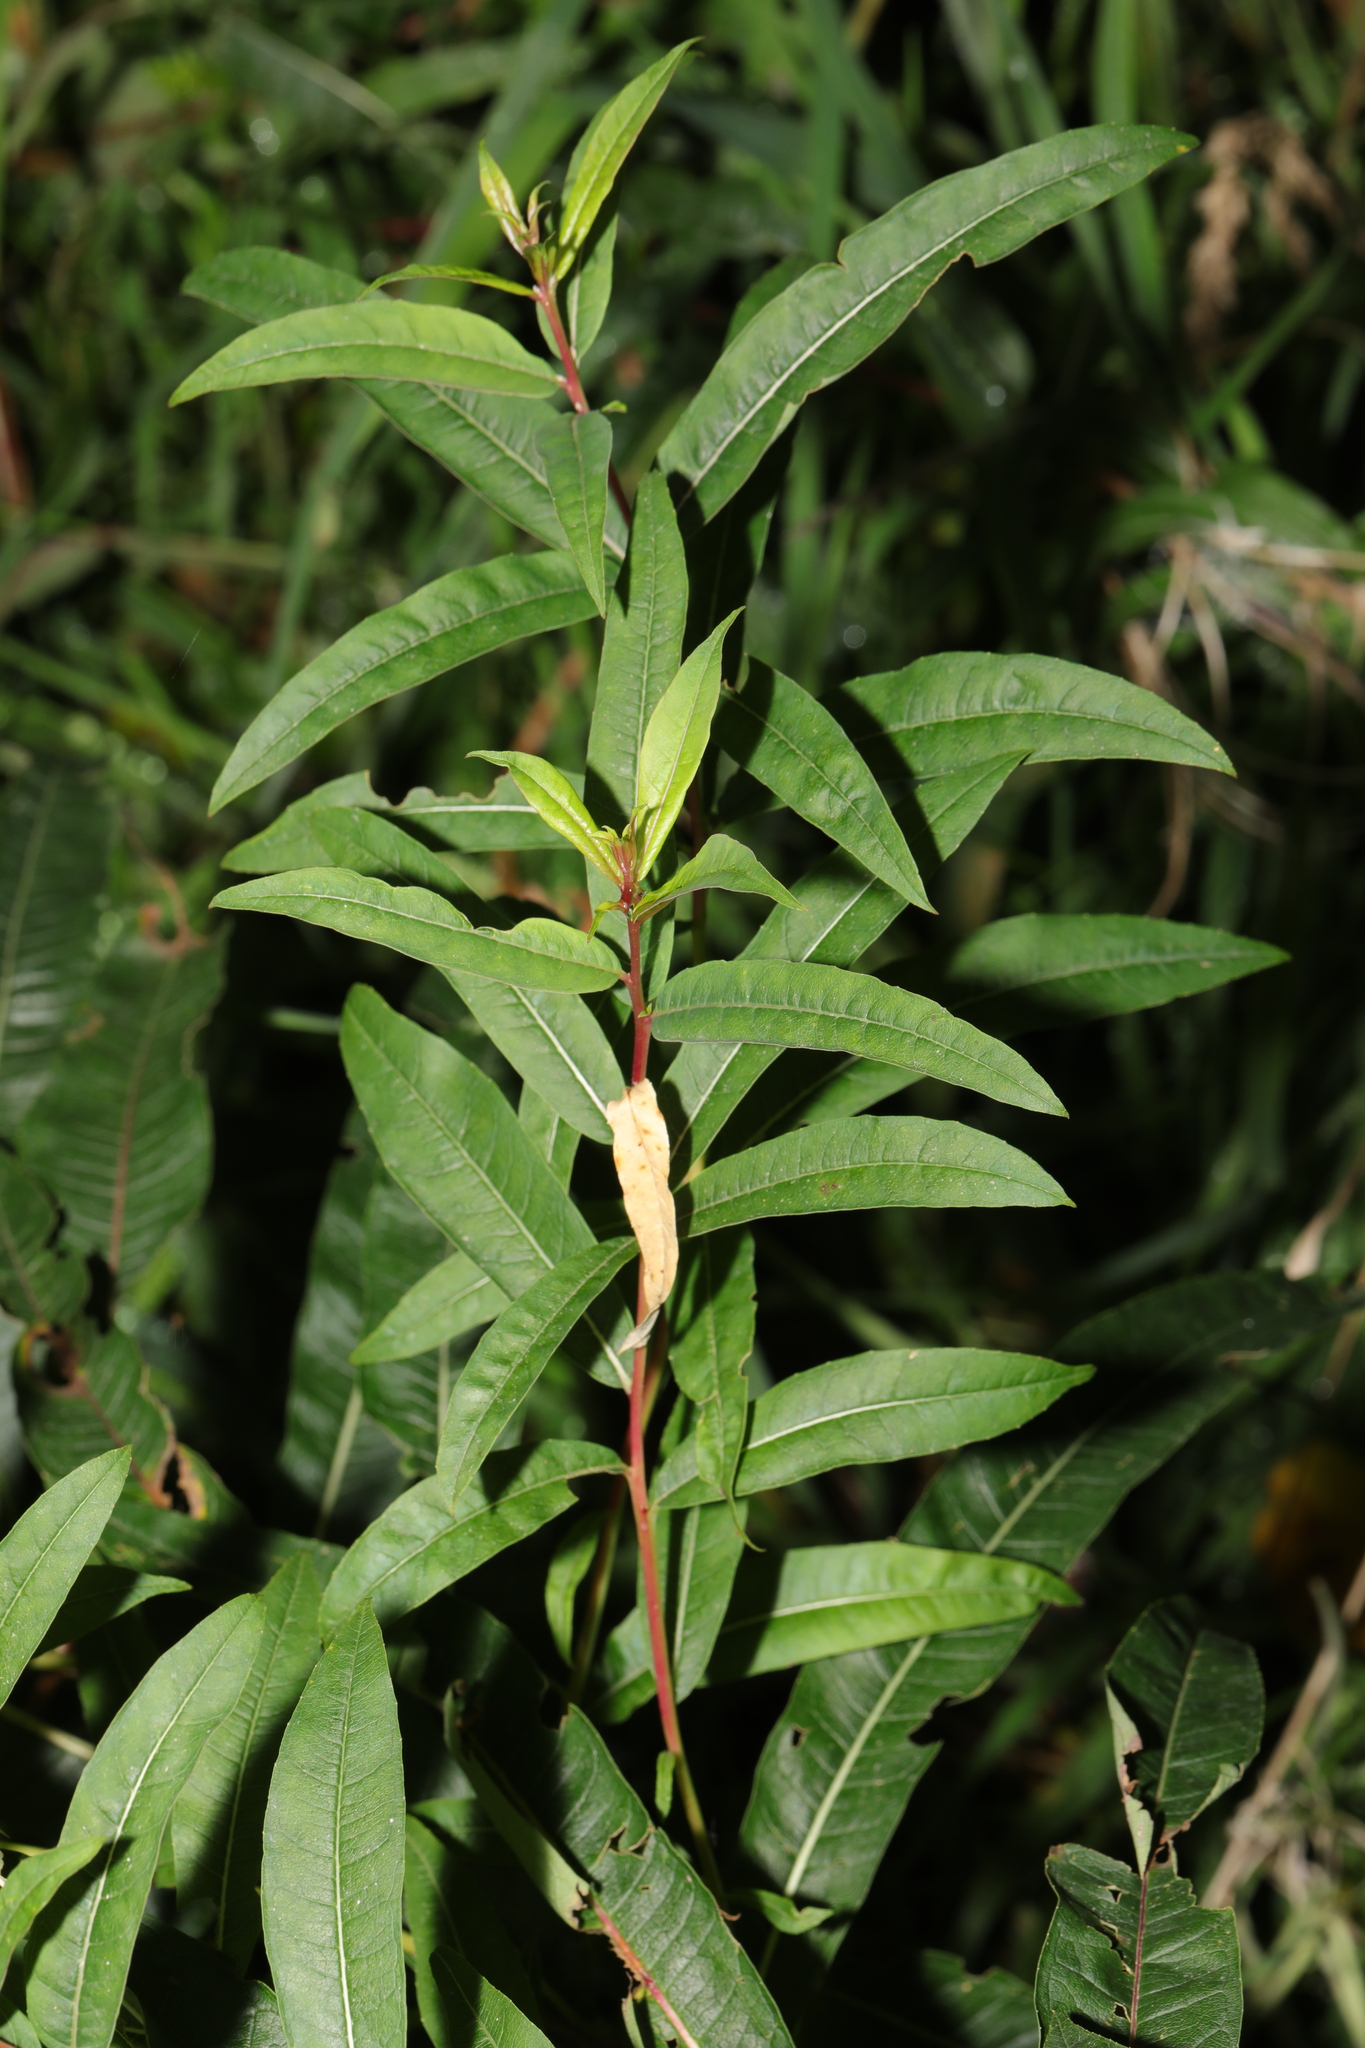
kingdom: Plantae
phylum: Tracheophyta
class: Magnoliopsida
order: Myrtales
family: Onagraceae
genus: Chamaenerion
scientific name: Chamaenerion angustifolium
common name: Fireweed
